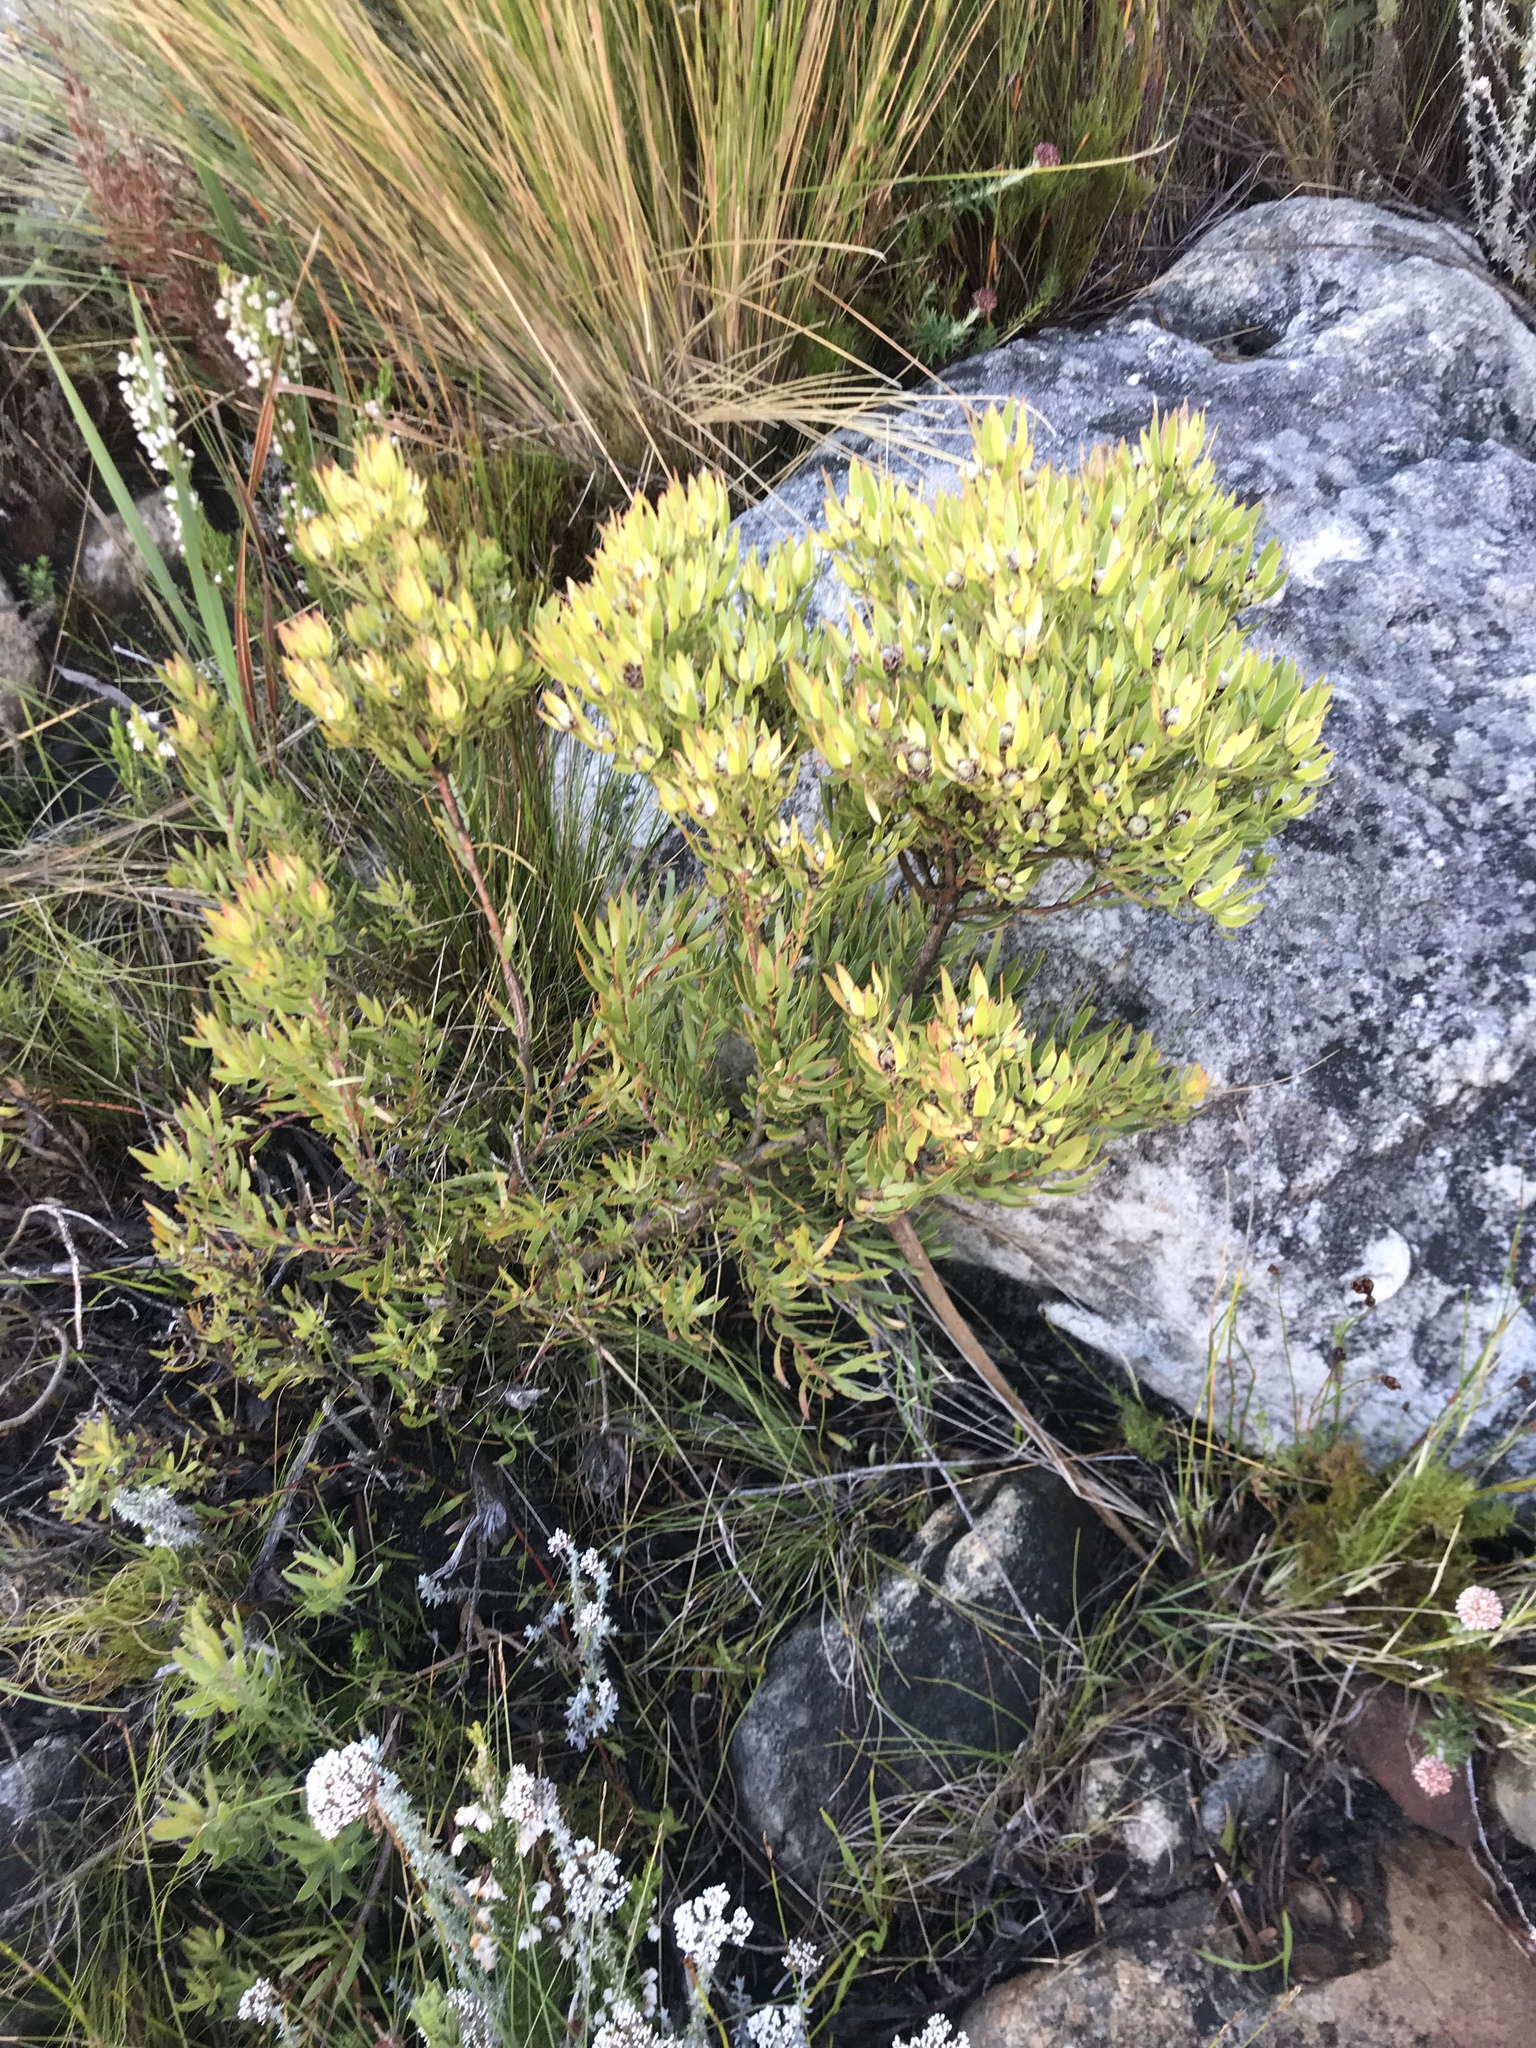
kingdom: Plantae
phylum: Tracheophyta
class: Magnoliopsida
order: Proteales
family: Proteaceae
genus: Leucadendron
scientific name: Leucadendron spissifolium
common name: Spear-leaf conebush
